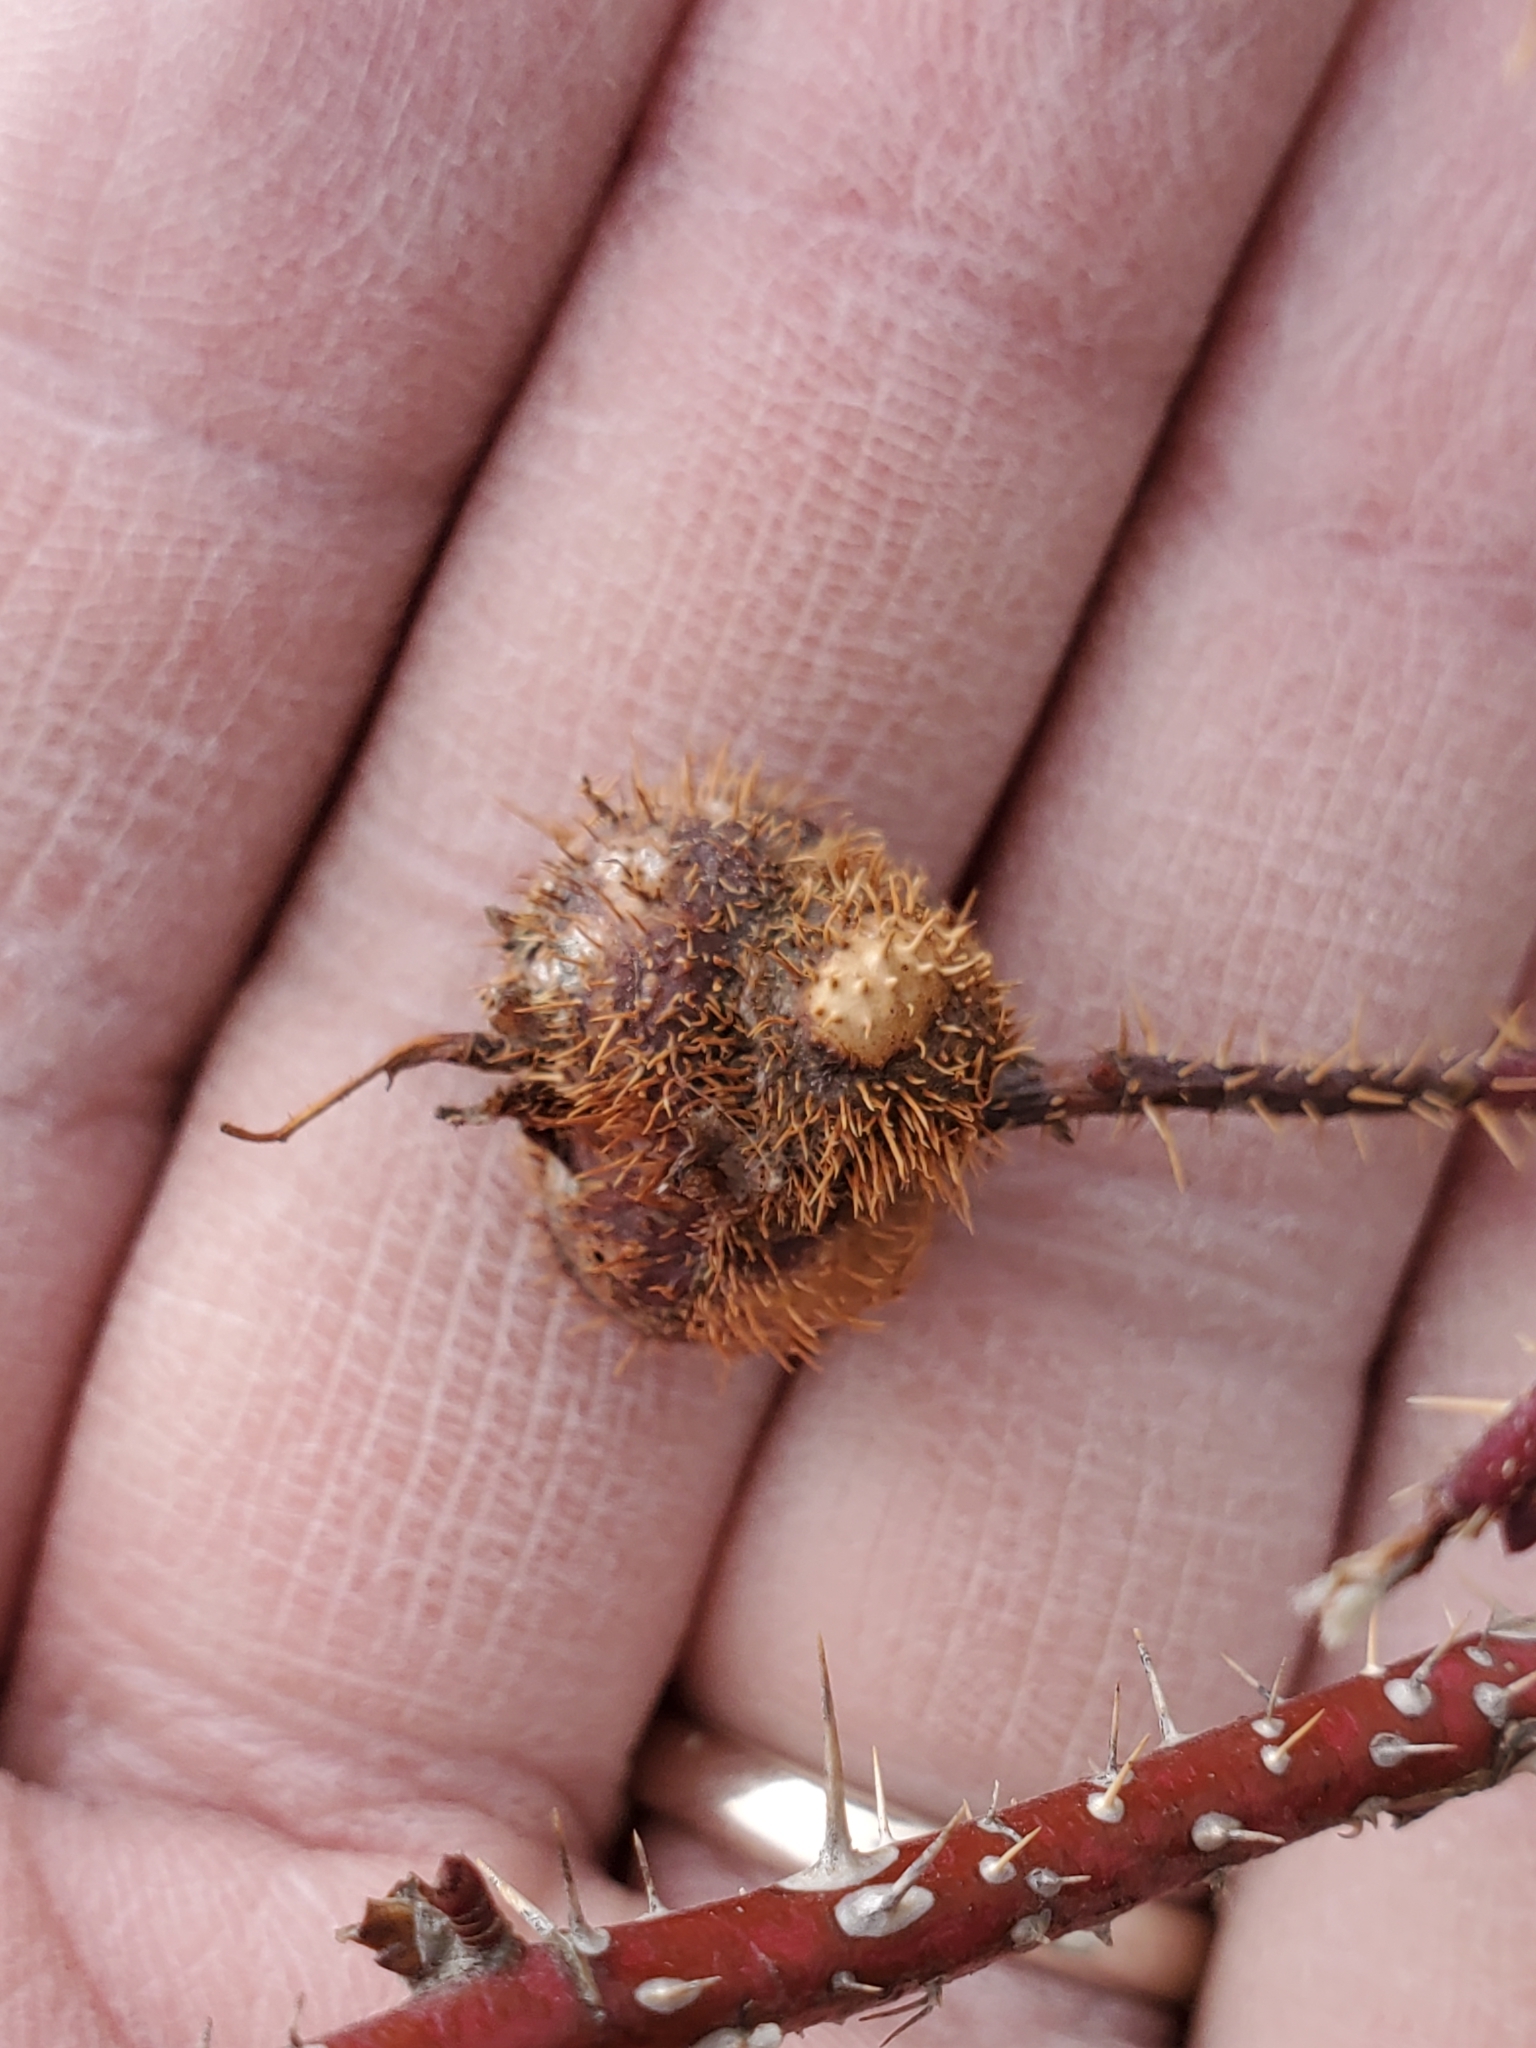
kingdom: Animalia
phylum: Arthropoda
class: Insecta
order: Hymenoptera
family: Cynipidae
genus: Diplolepis
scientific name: Diplolepis spinosa
